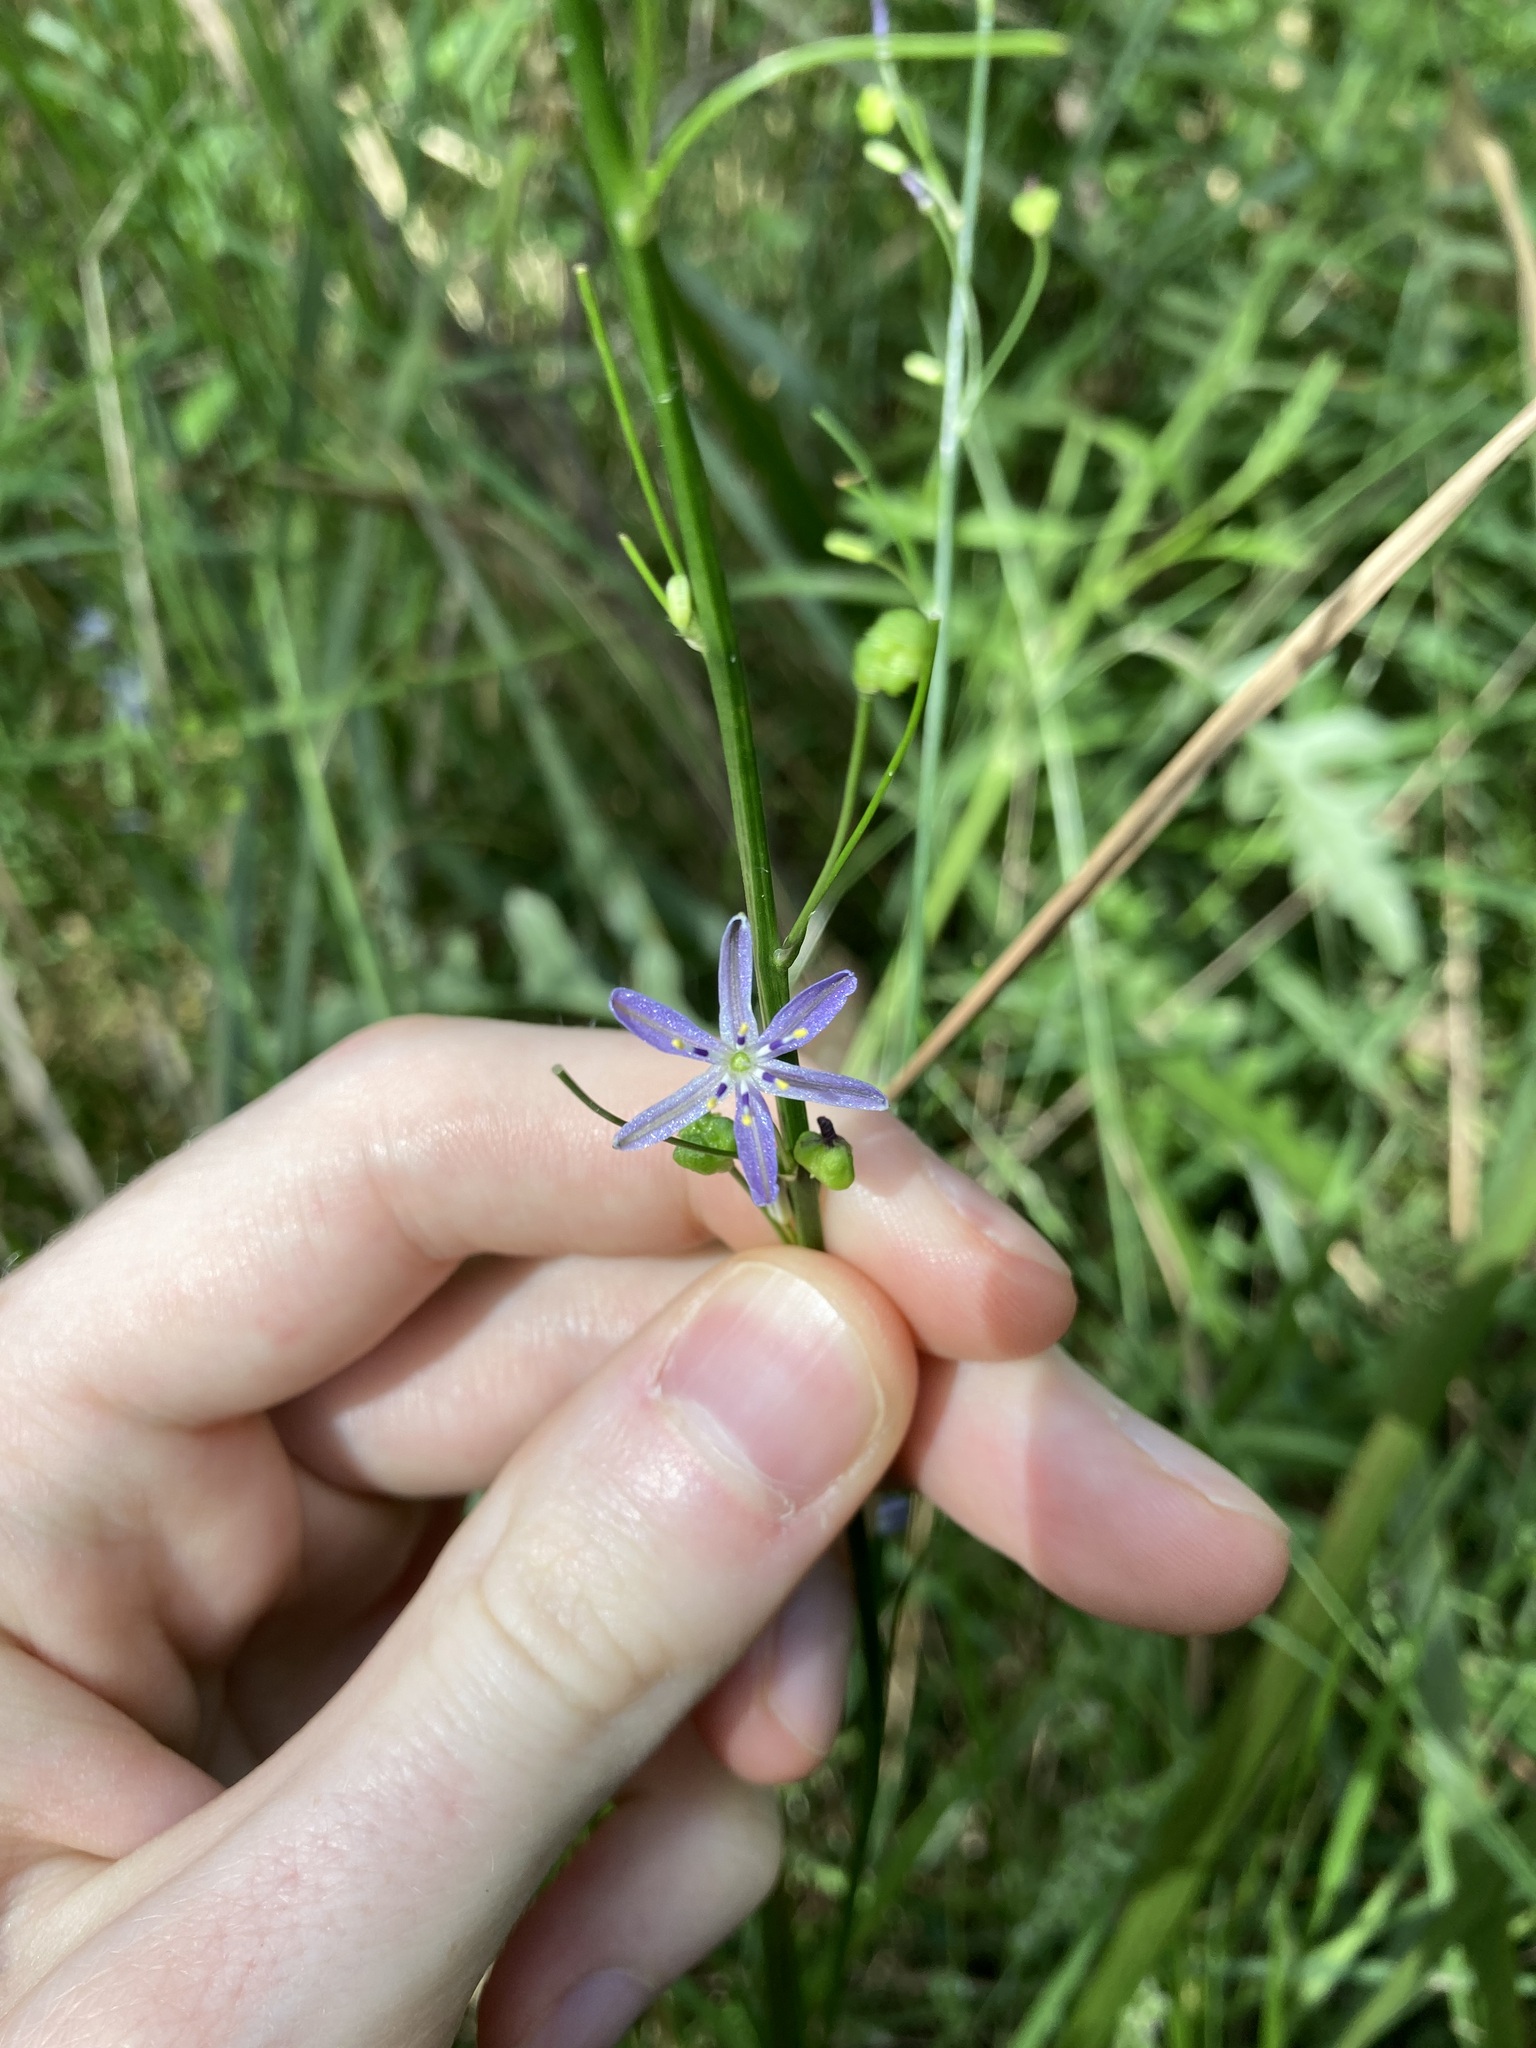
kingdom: Plantae
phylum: Tracheophyta
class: Liliopsida
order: Asparagales
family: Asphodelaceae
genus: Caesia
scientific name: Caesia parviflora
